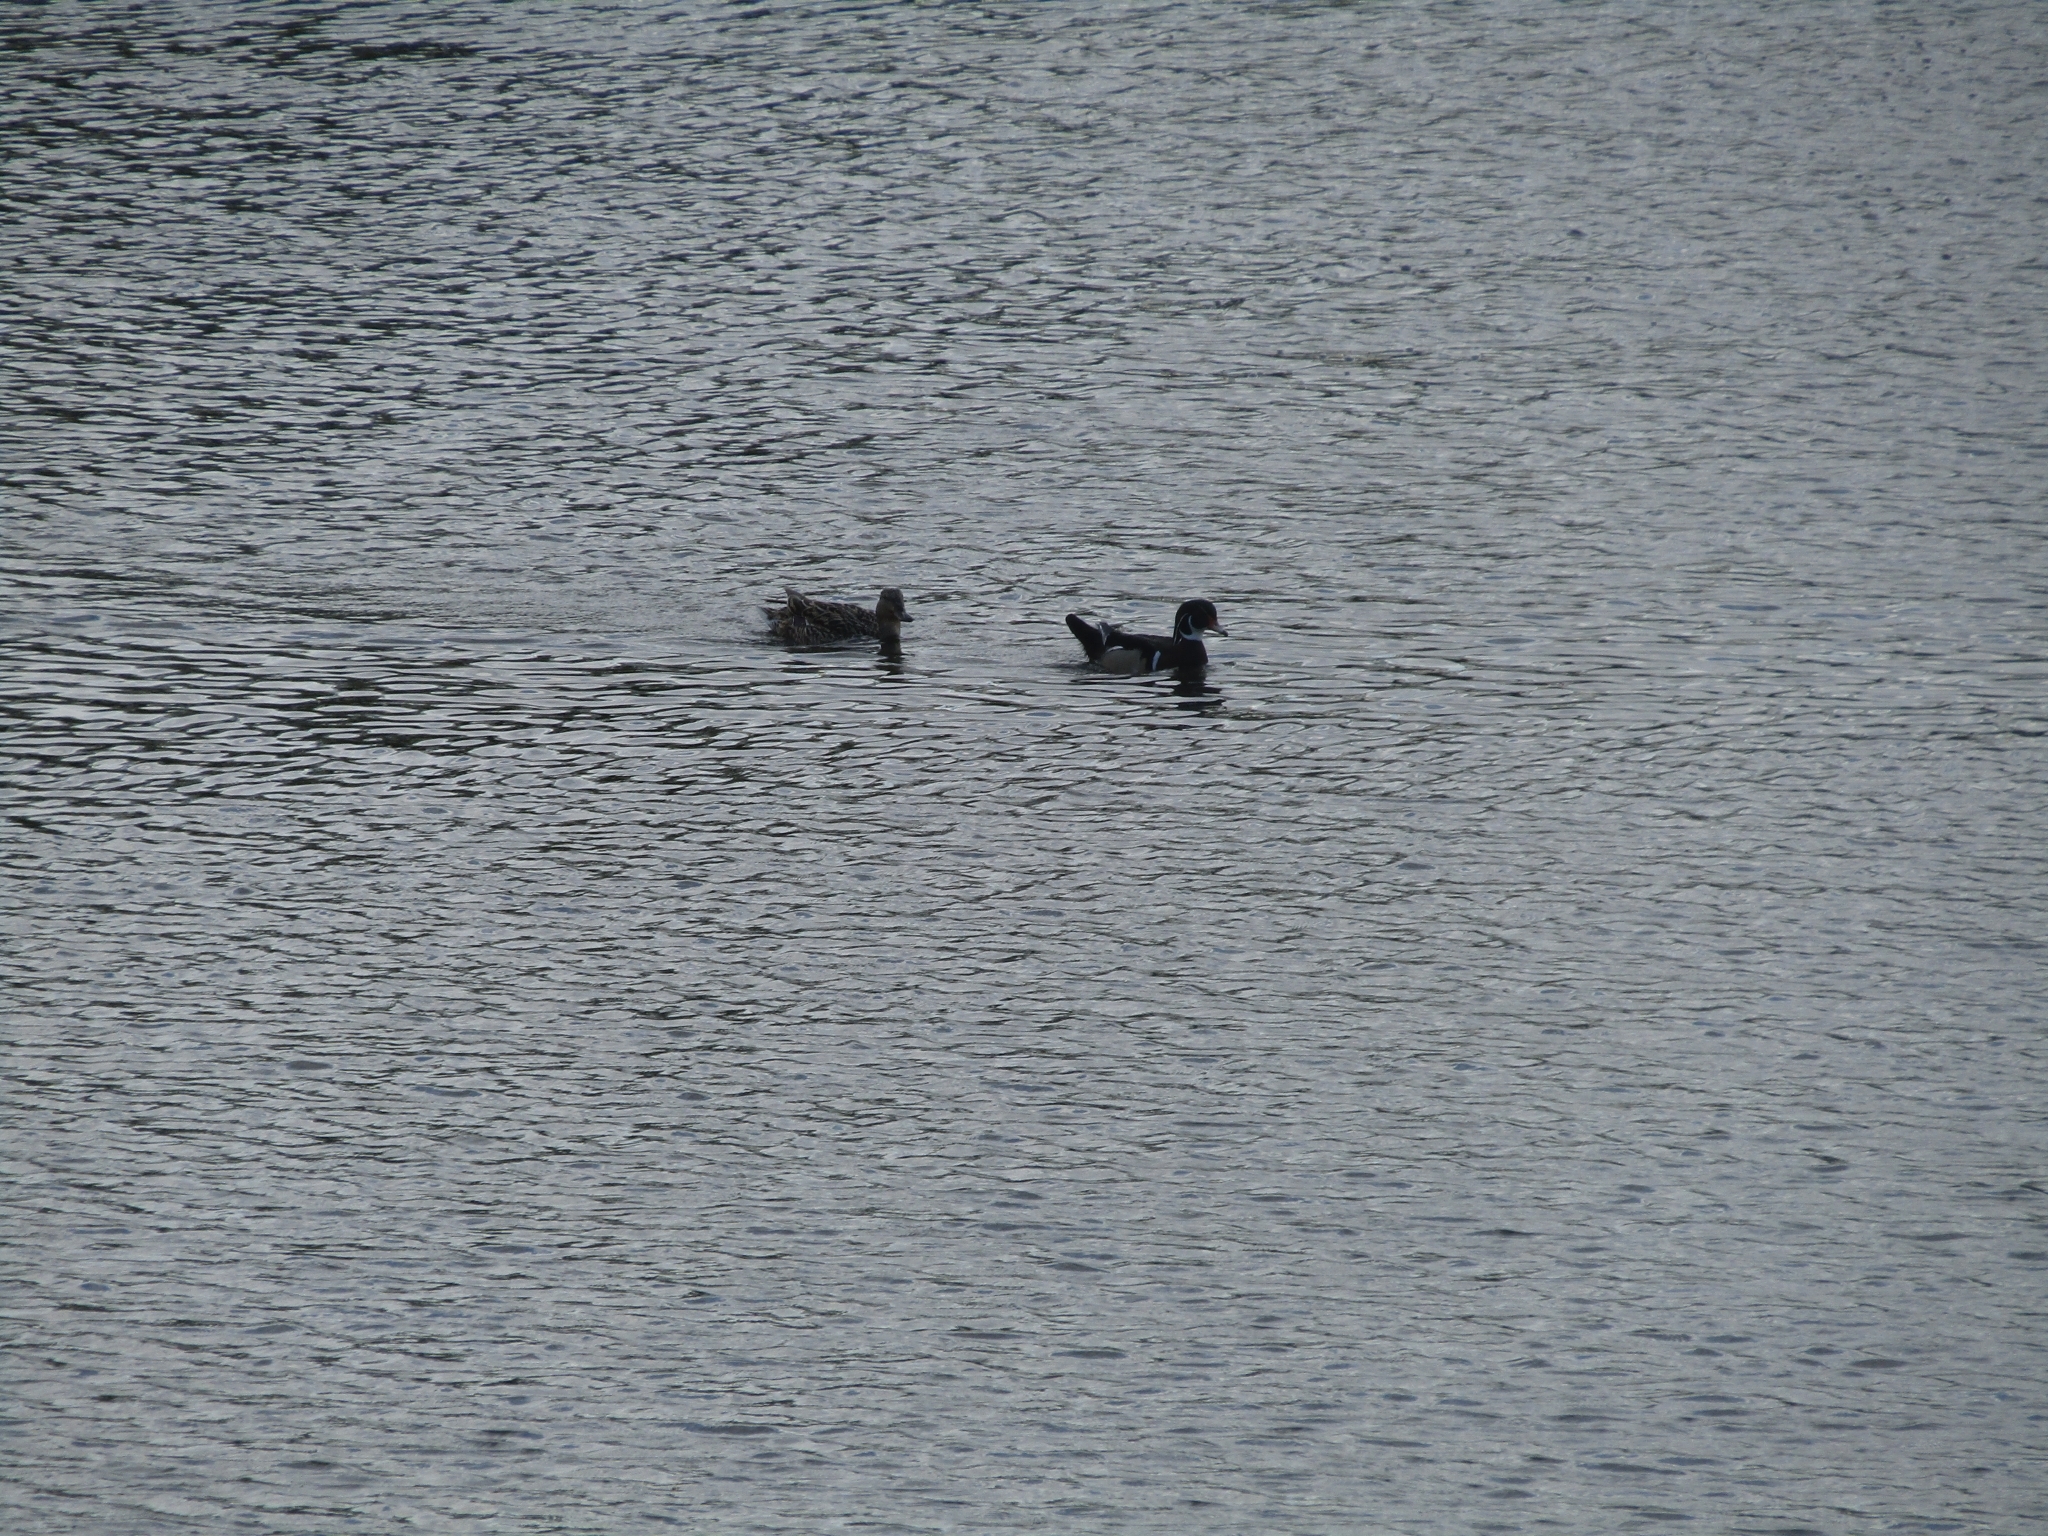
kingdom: Animalia
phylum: Chordata
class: Aves
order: Anseriformes
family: Anatidae
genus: Aix
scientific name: Aix sponsa
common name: Wood duck
